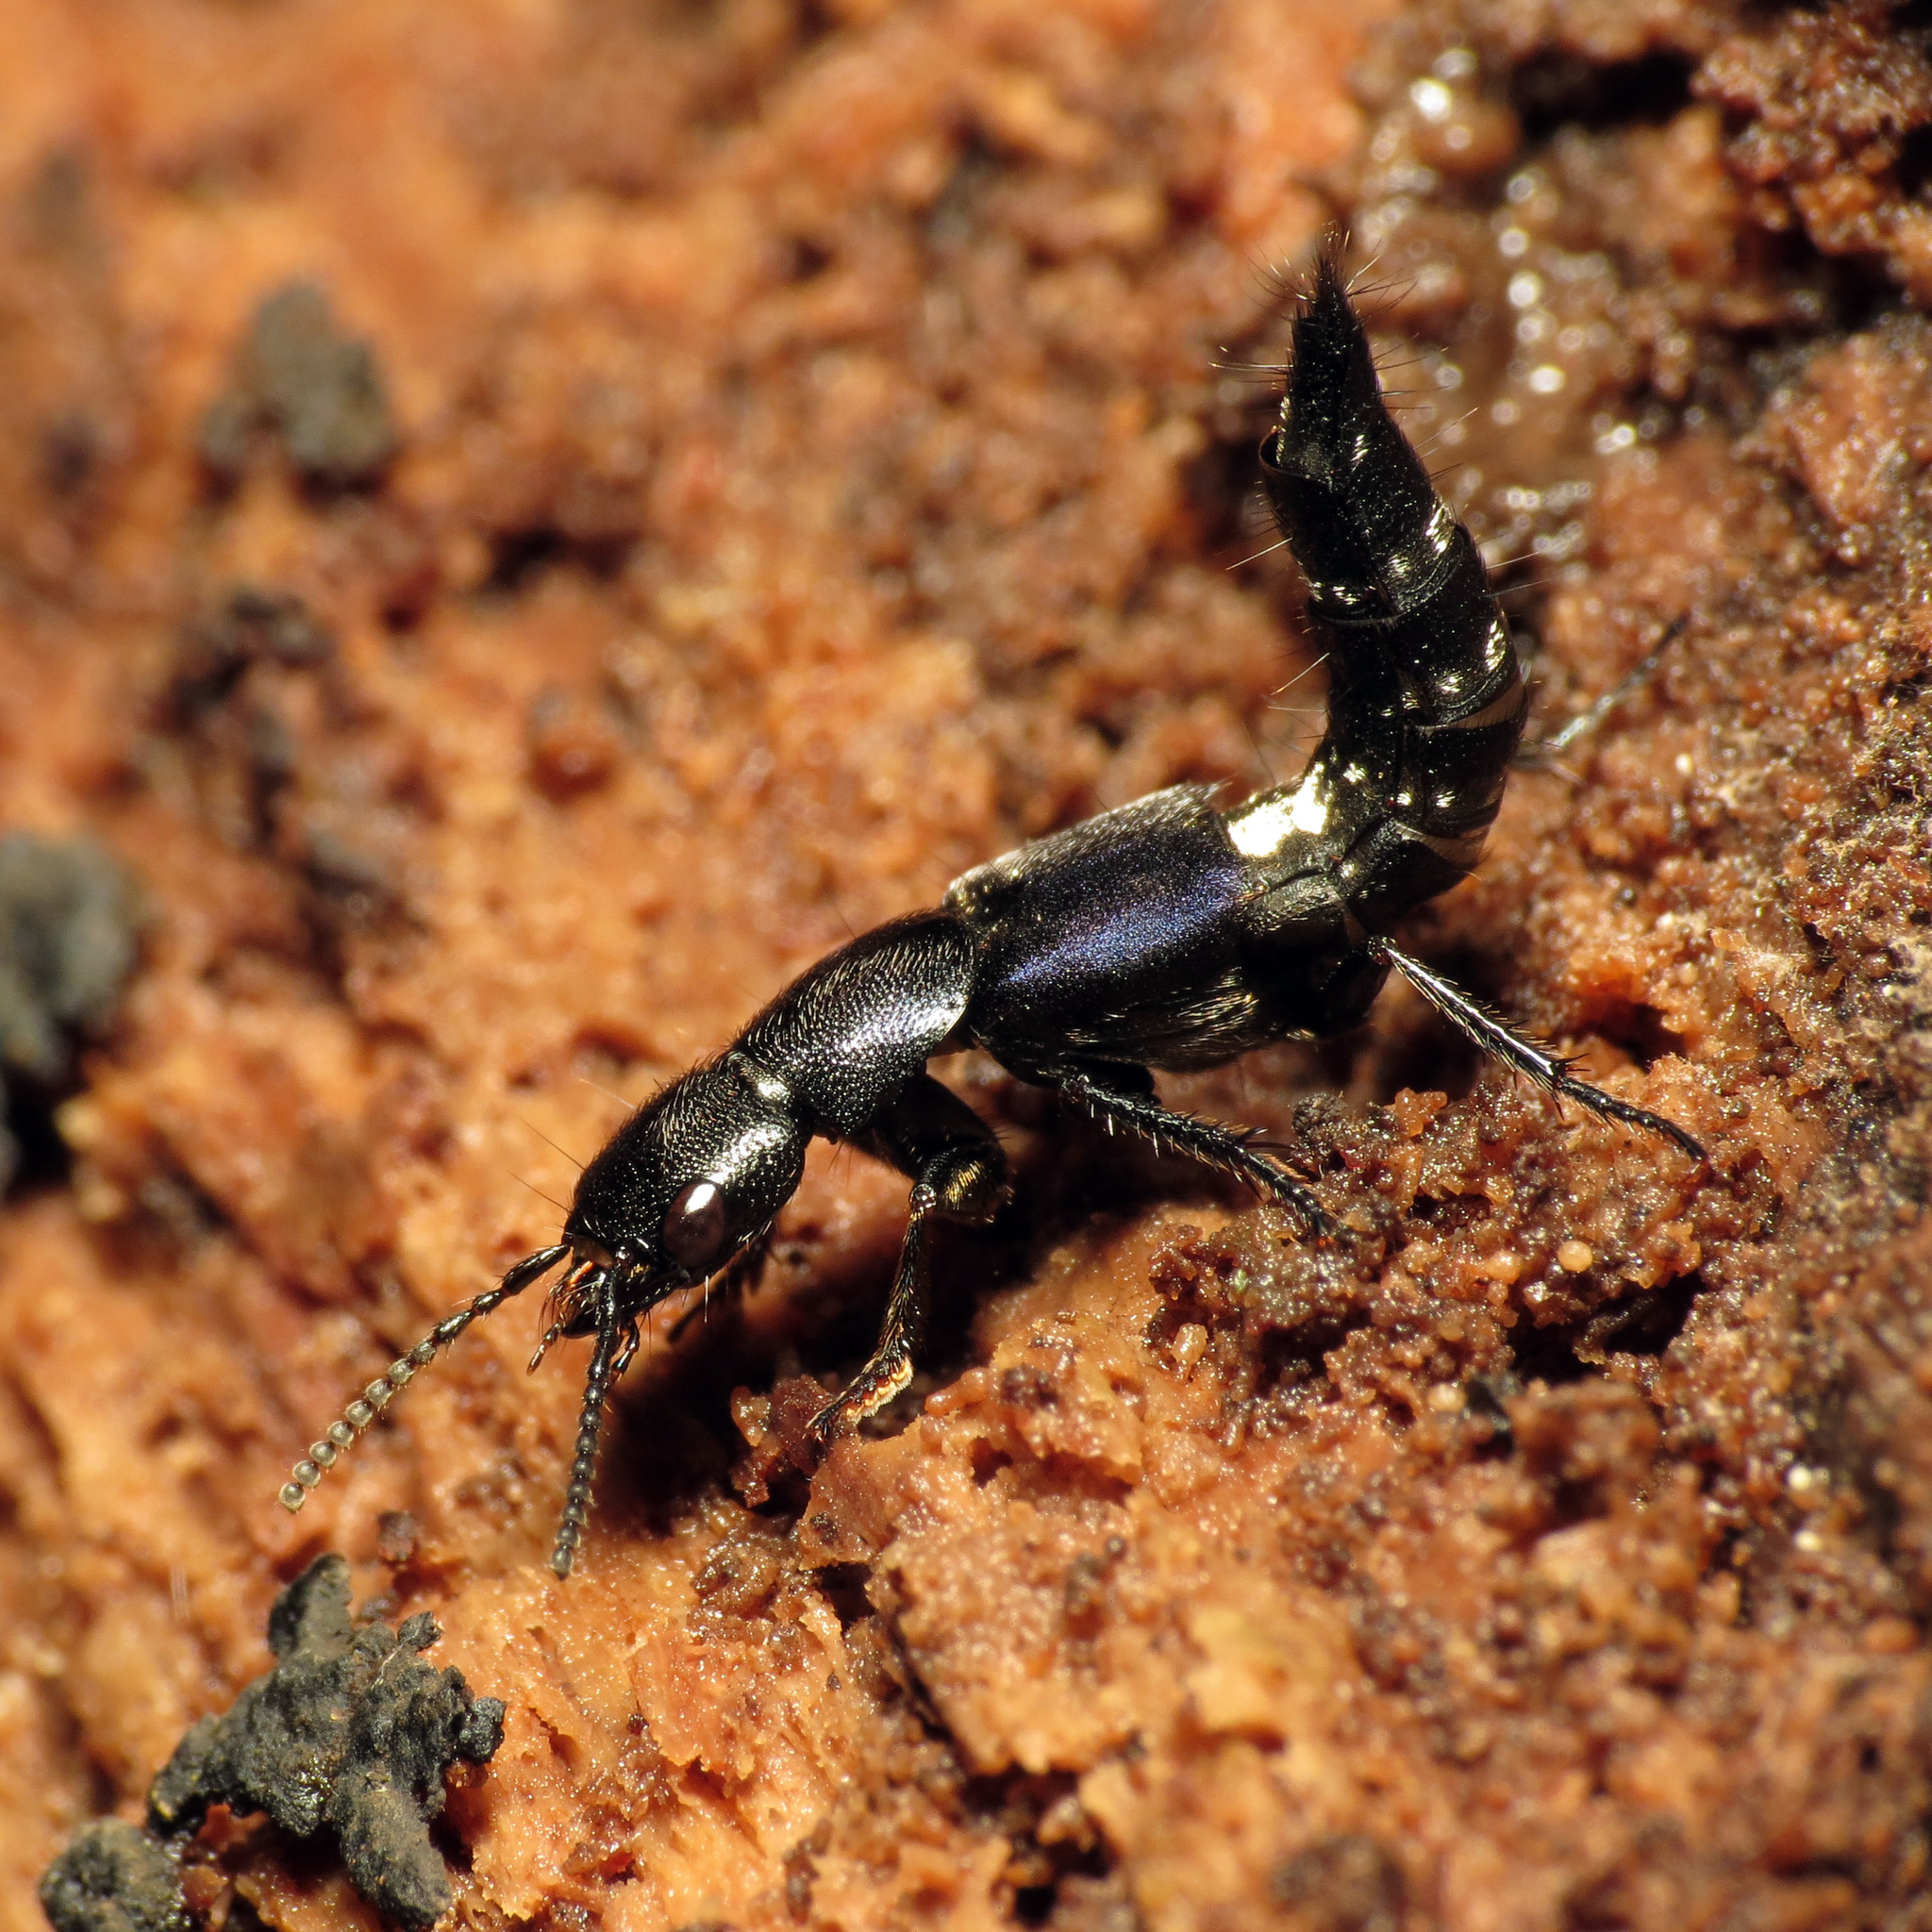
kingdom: Animalia
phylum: Arthropoda
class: Insecta
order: Coleoptera
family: Staphylinidae
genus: Platydracus
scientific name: Platydracus violaceus
